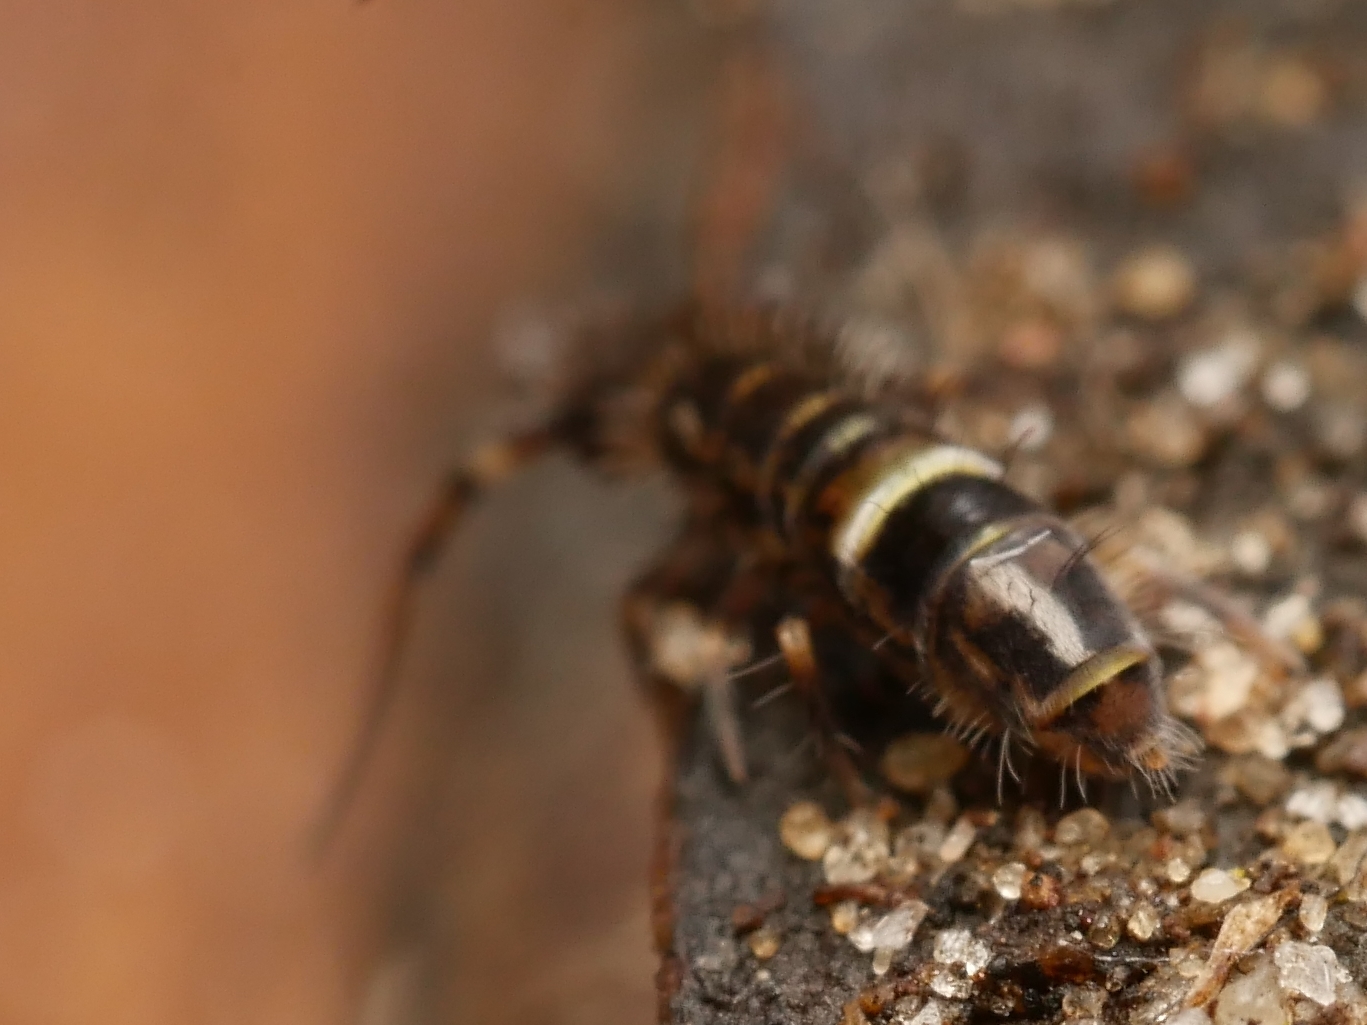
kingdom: Animalia
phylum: Arthropoda
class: Collembola
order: Entomobryomorpha
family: Orchesellidae
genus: Orchesella
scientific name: Orchesella cincta
